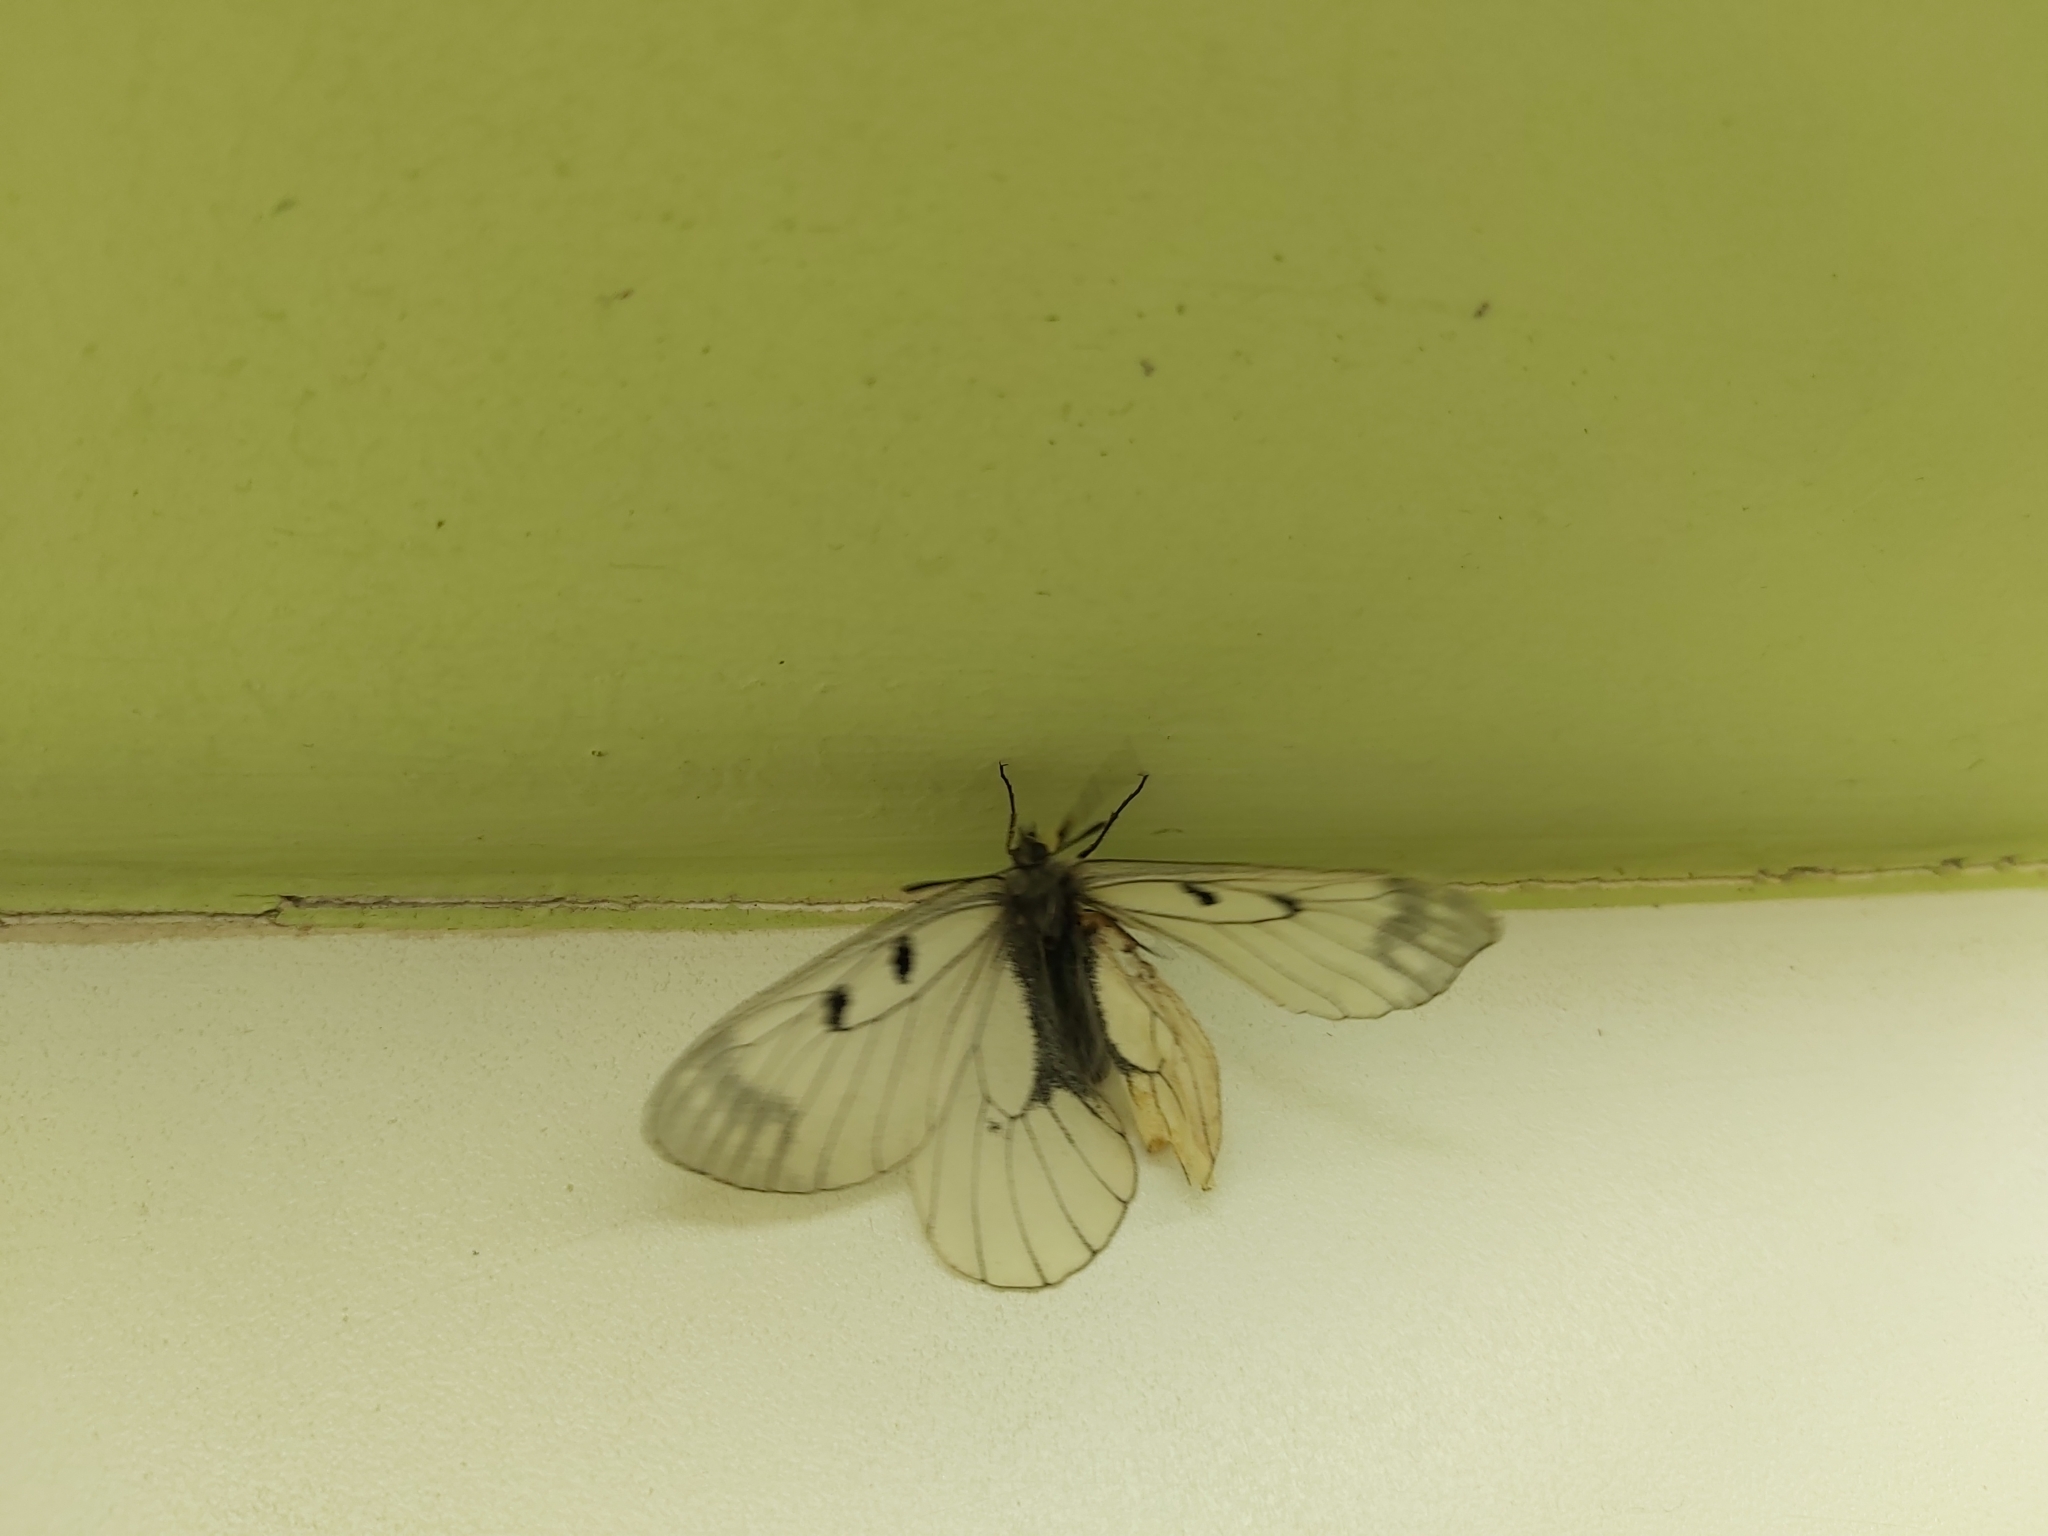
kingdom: Animalia
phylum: Arthropoda
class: Insecta
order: Lepidoptera
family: Papilionidae
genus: Parnassius
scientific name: Parnassius mnemosyne
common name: Clouded apollo
